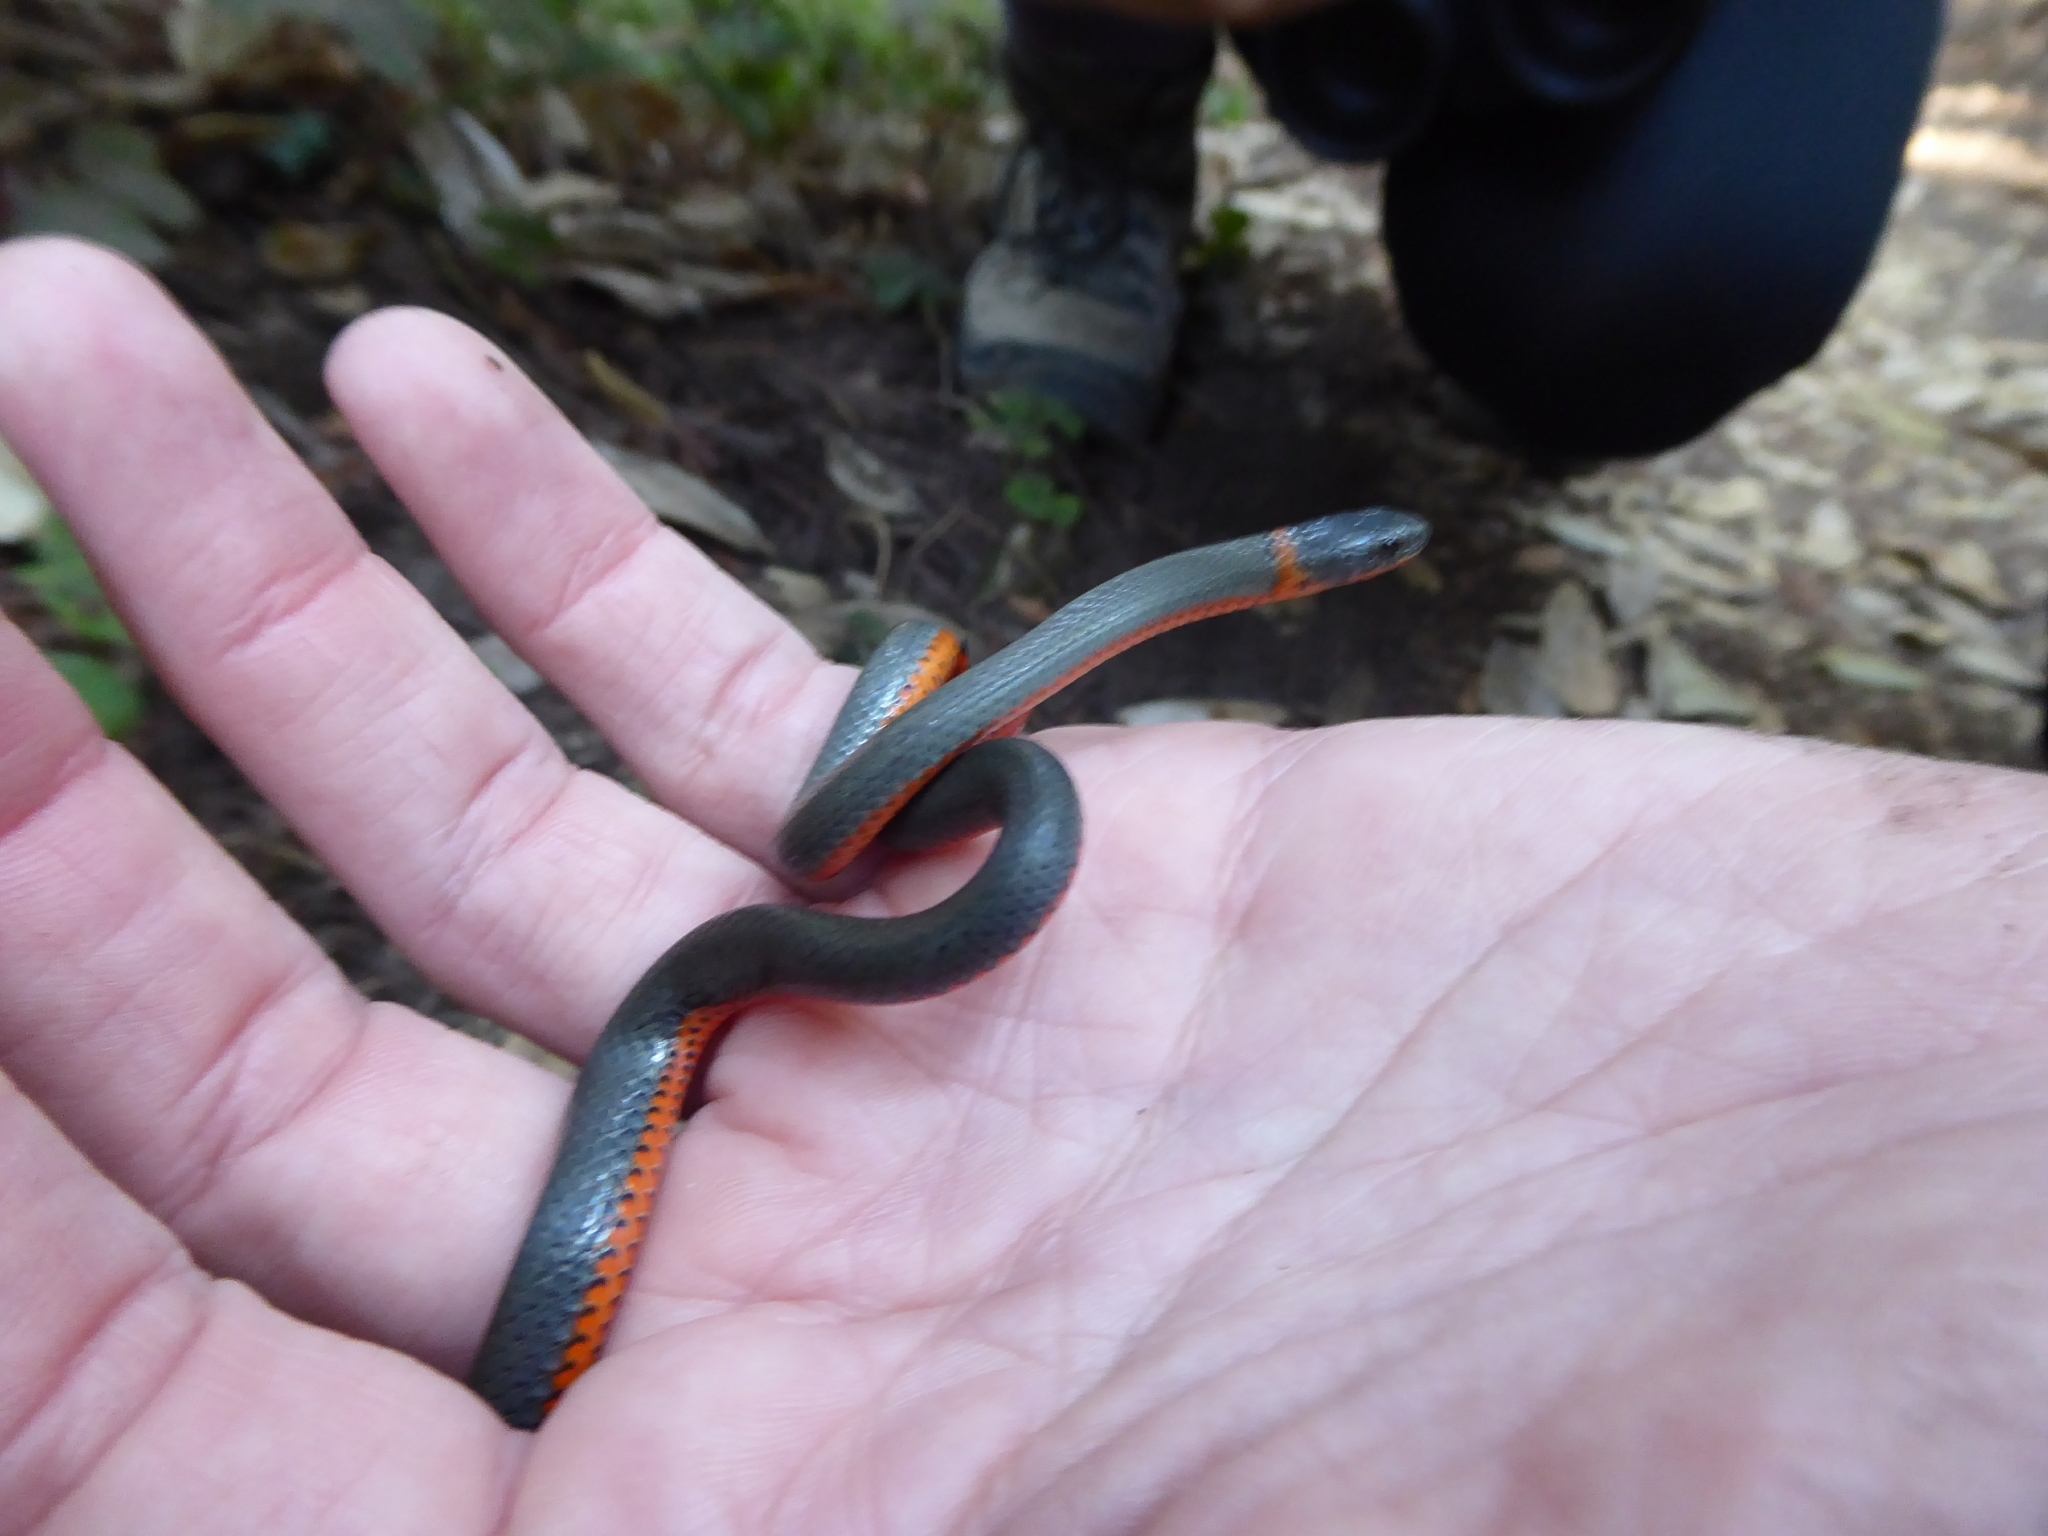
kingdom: Animalia
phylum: Chordata
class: Squamata
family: Colubridae
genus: Diadophis
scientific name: Diadophis punctatus
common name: Ringneck snake
